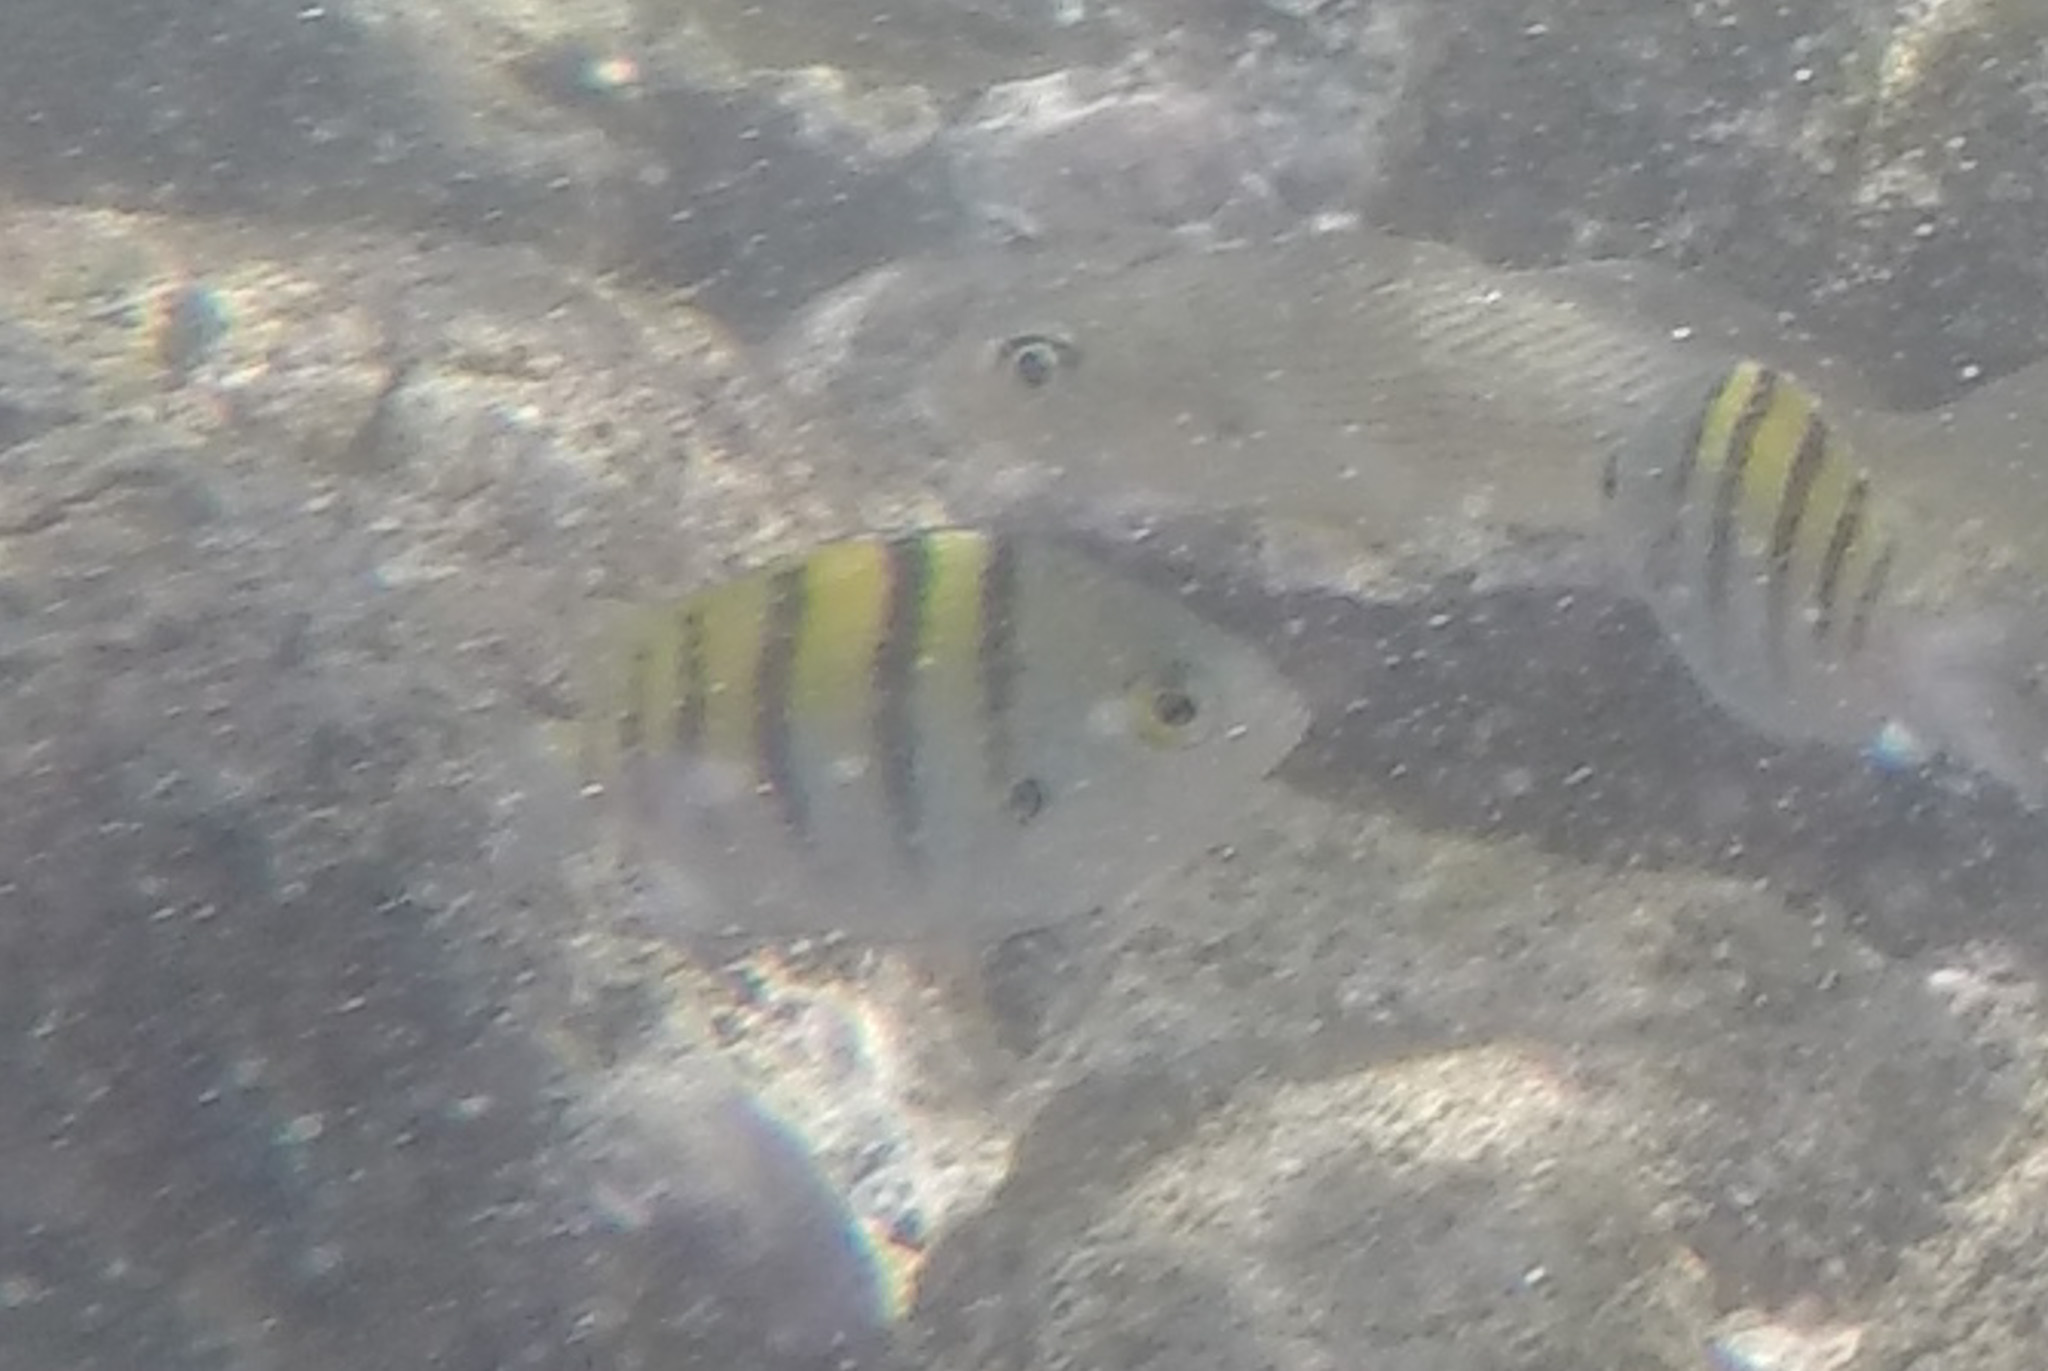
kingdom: Animalia
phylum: Chordata
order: Perciformes
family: Pomacentridae
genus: Abudefduf
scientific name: Abudefduf troschelii
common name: Panamic sergeant major
